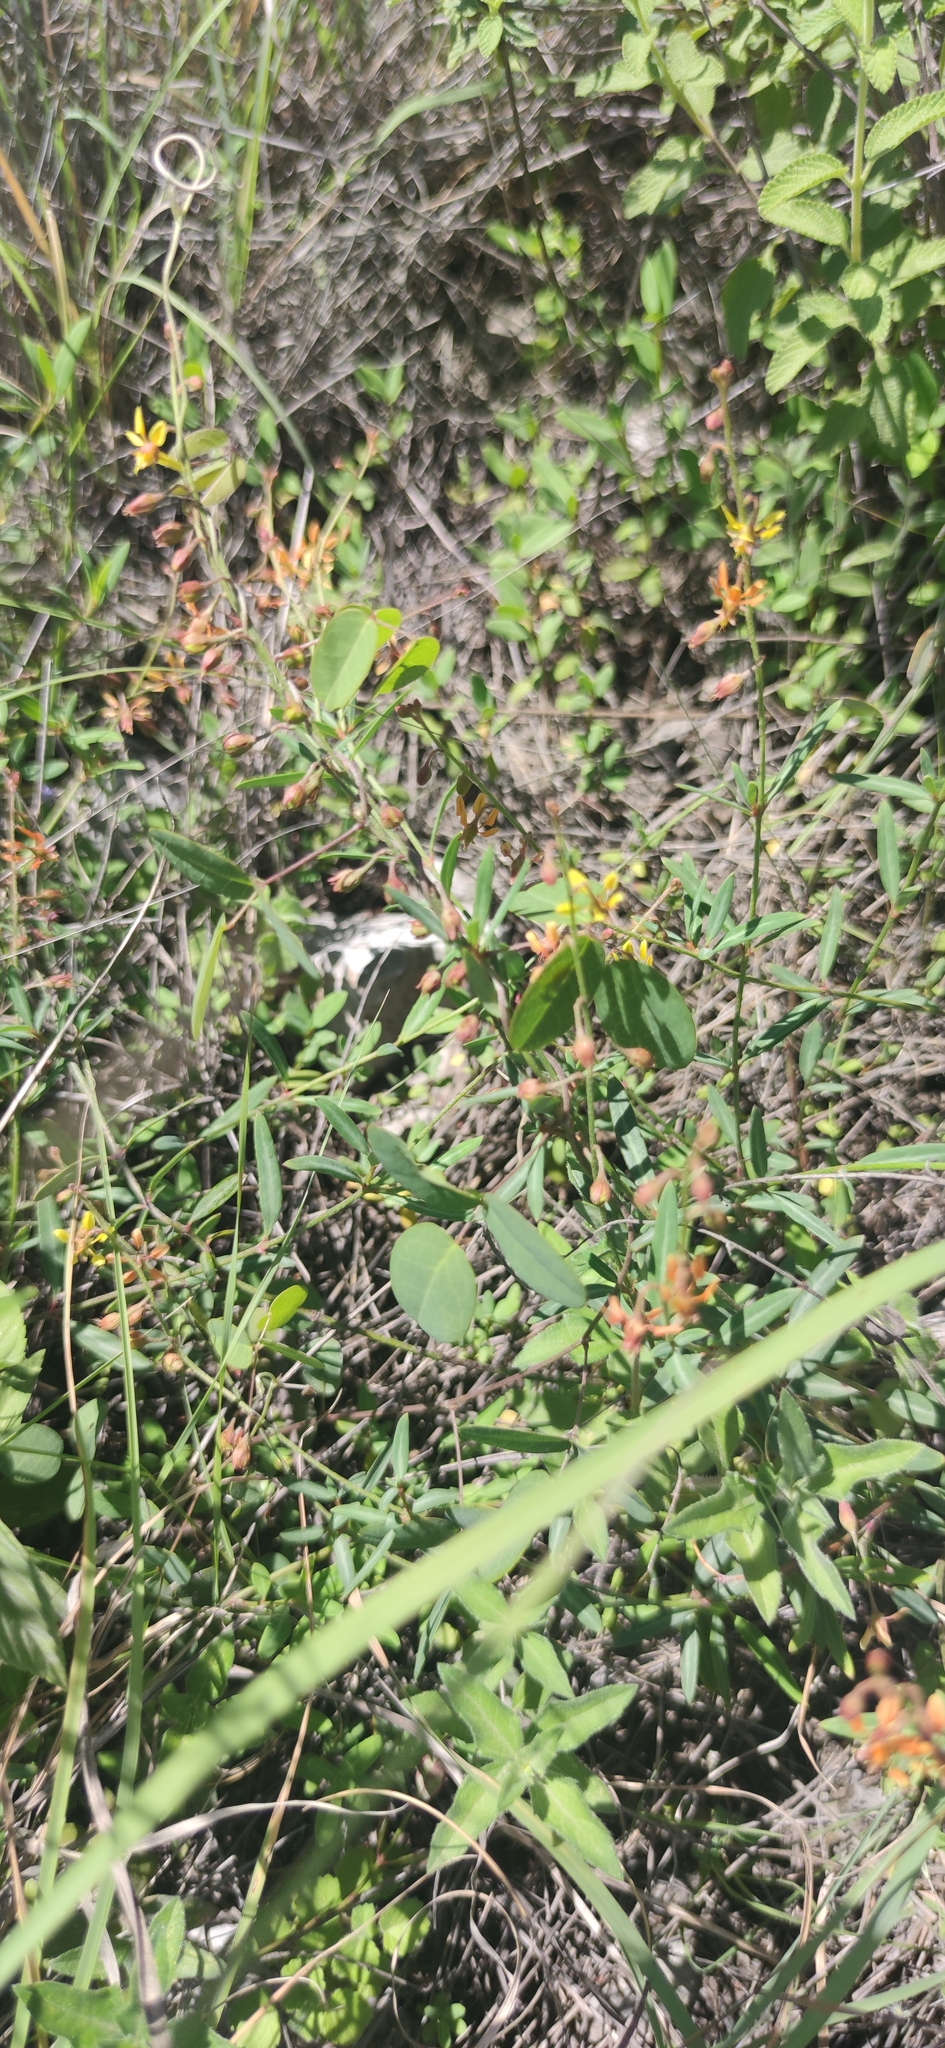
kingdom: Plantae
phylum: Tracheophyta
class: Magnoliopsida
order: Malpighiales
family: Malpighiaceae
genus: Galphimia
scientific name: Galphimia angustifolia
